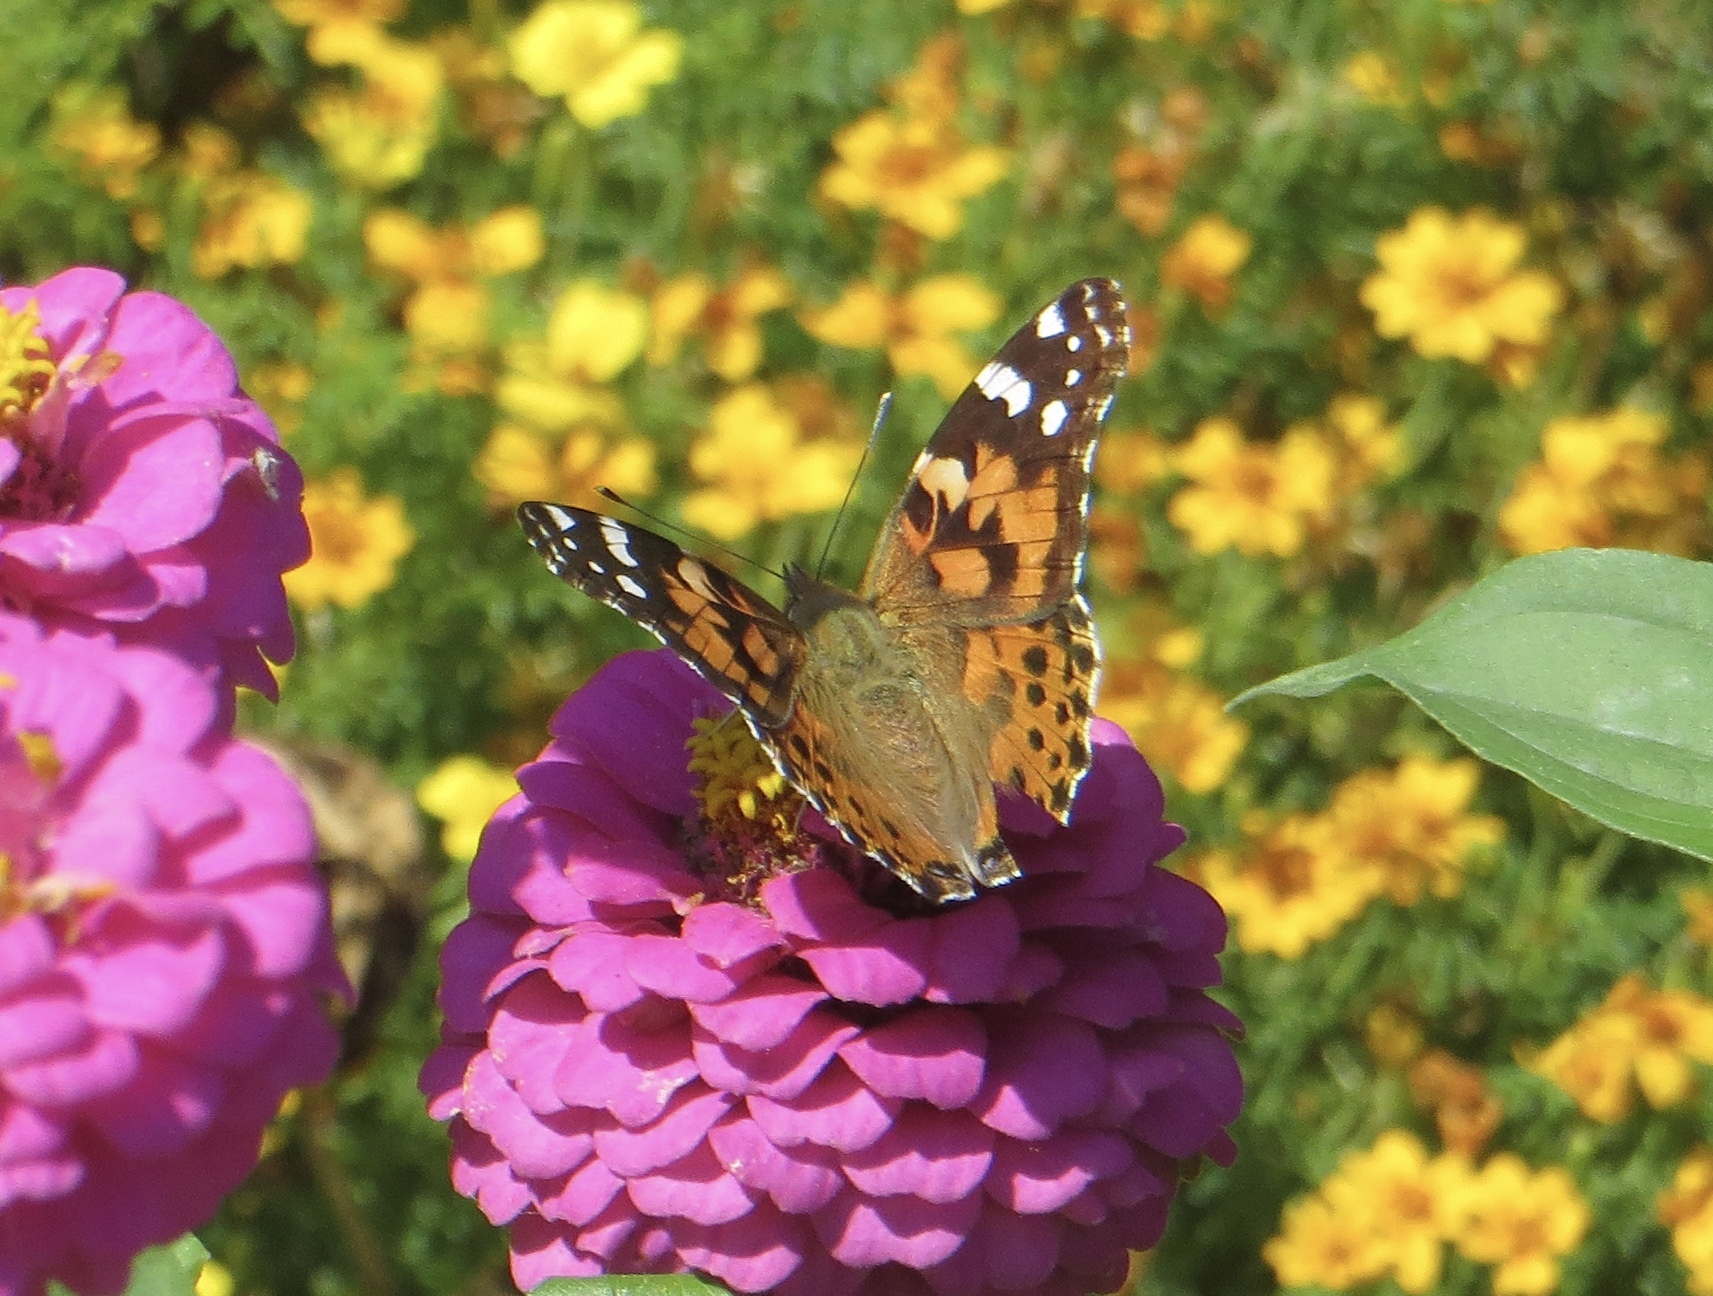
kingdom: Animalia
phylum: Arthropoda
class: Insecta
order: Lepidoptera
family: Nymphalidae
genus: Vanessa
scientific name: Vanessa cardui
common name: Painted lady
